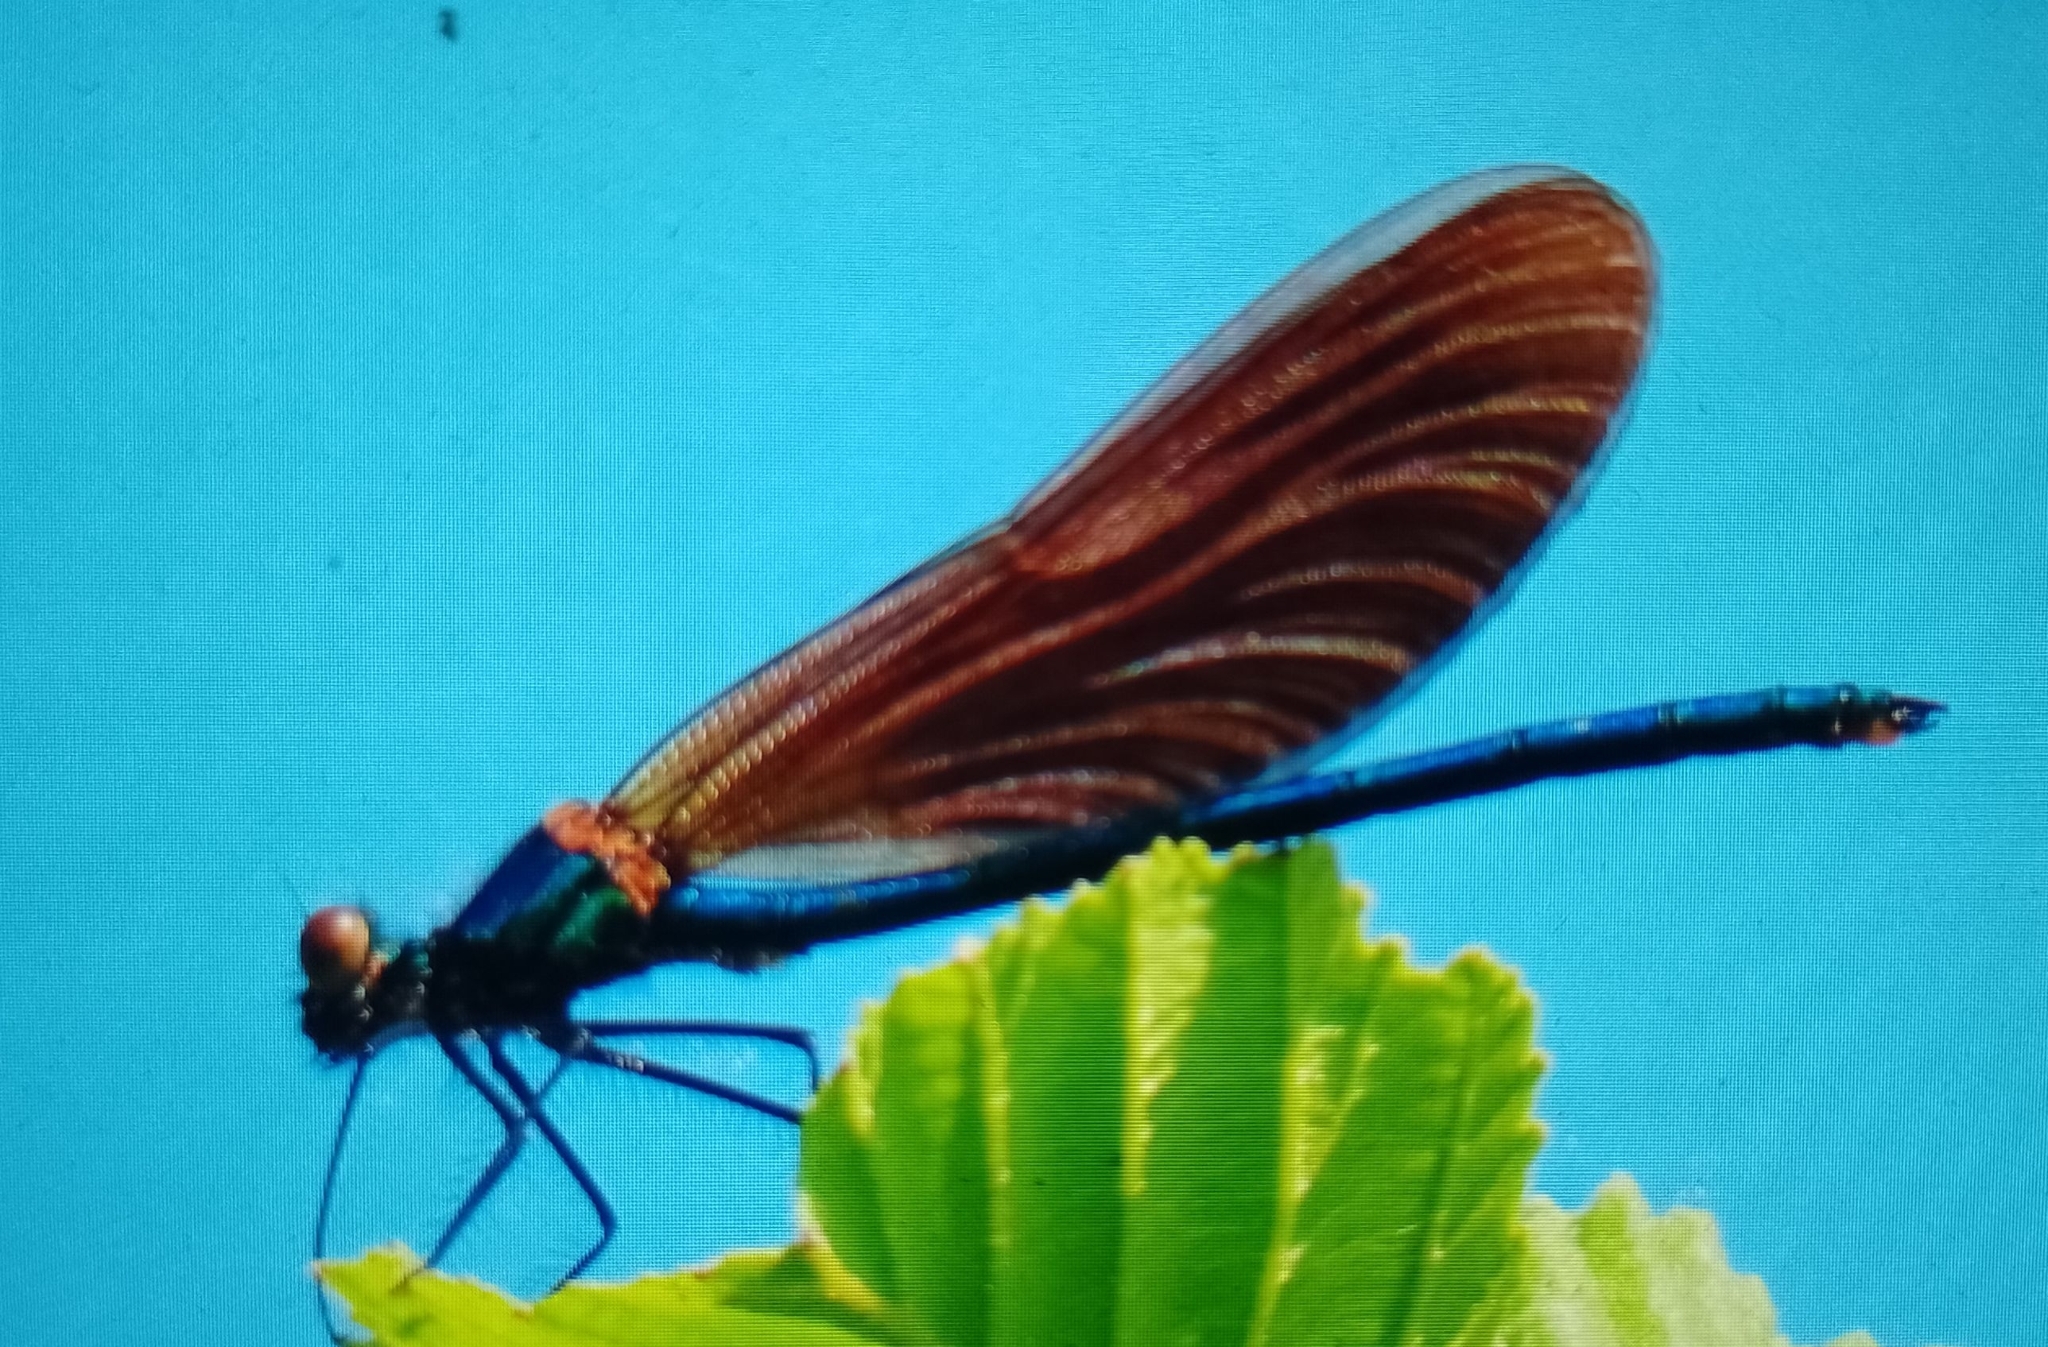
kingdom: Animalia
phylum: Arthropoda
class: Insecta
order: Odonata
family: Calopterygidae
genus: Calopteryx
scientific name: Calopteryx virgo
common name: Beautiful demoiselle
